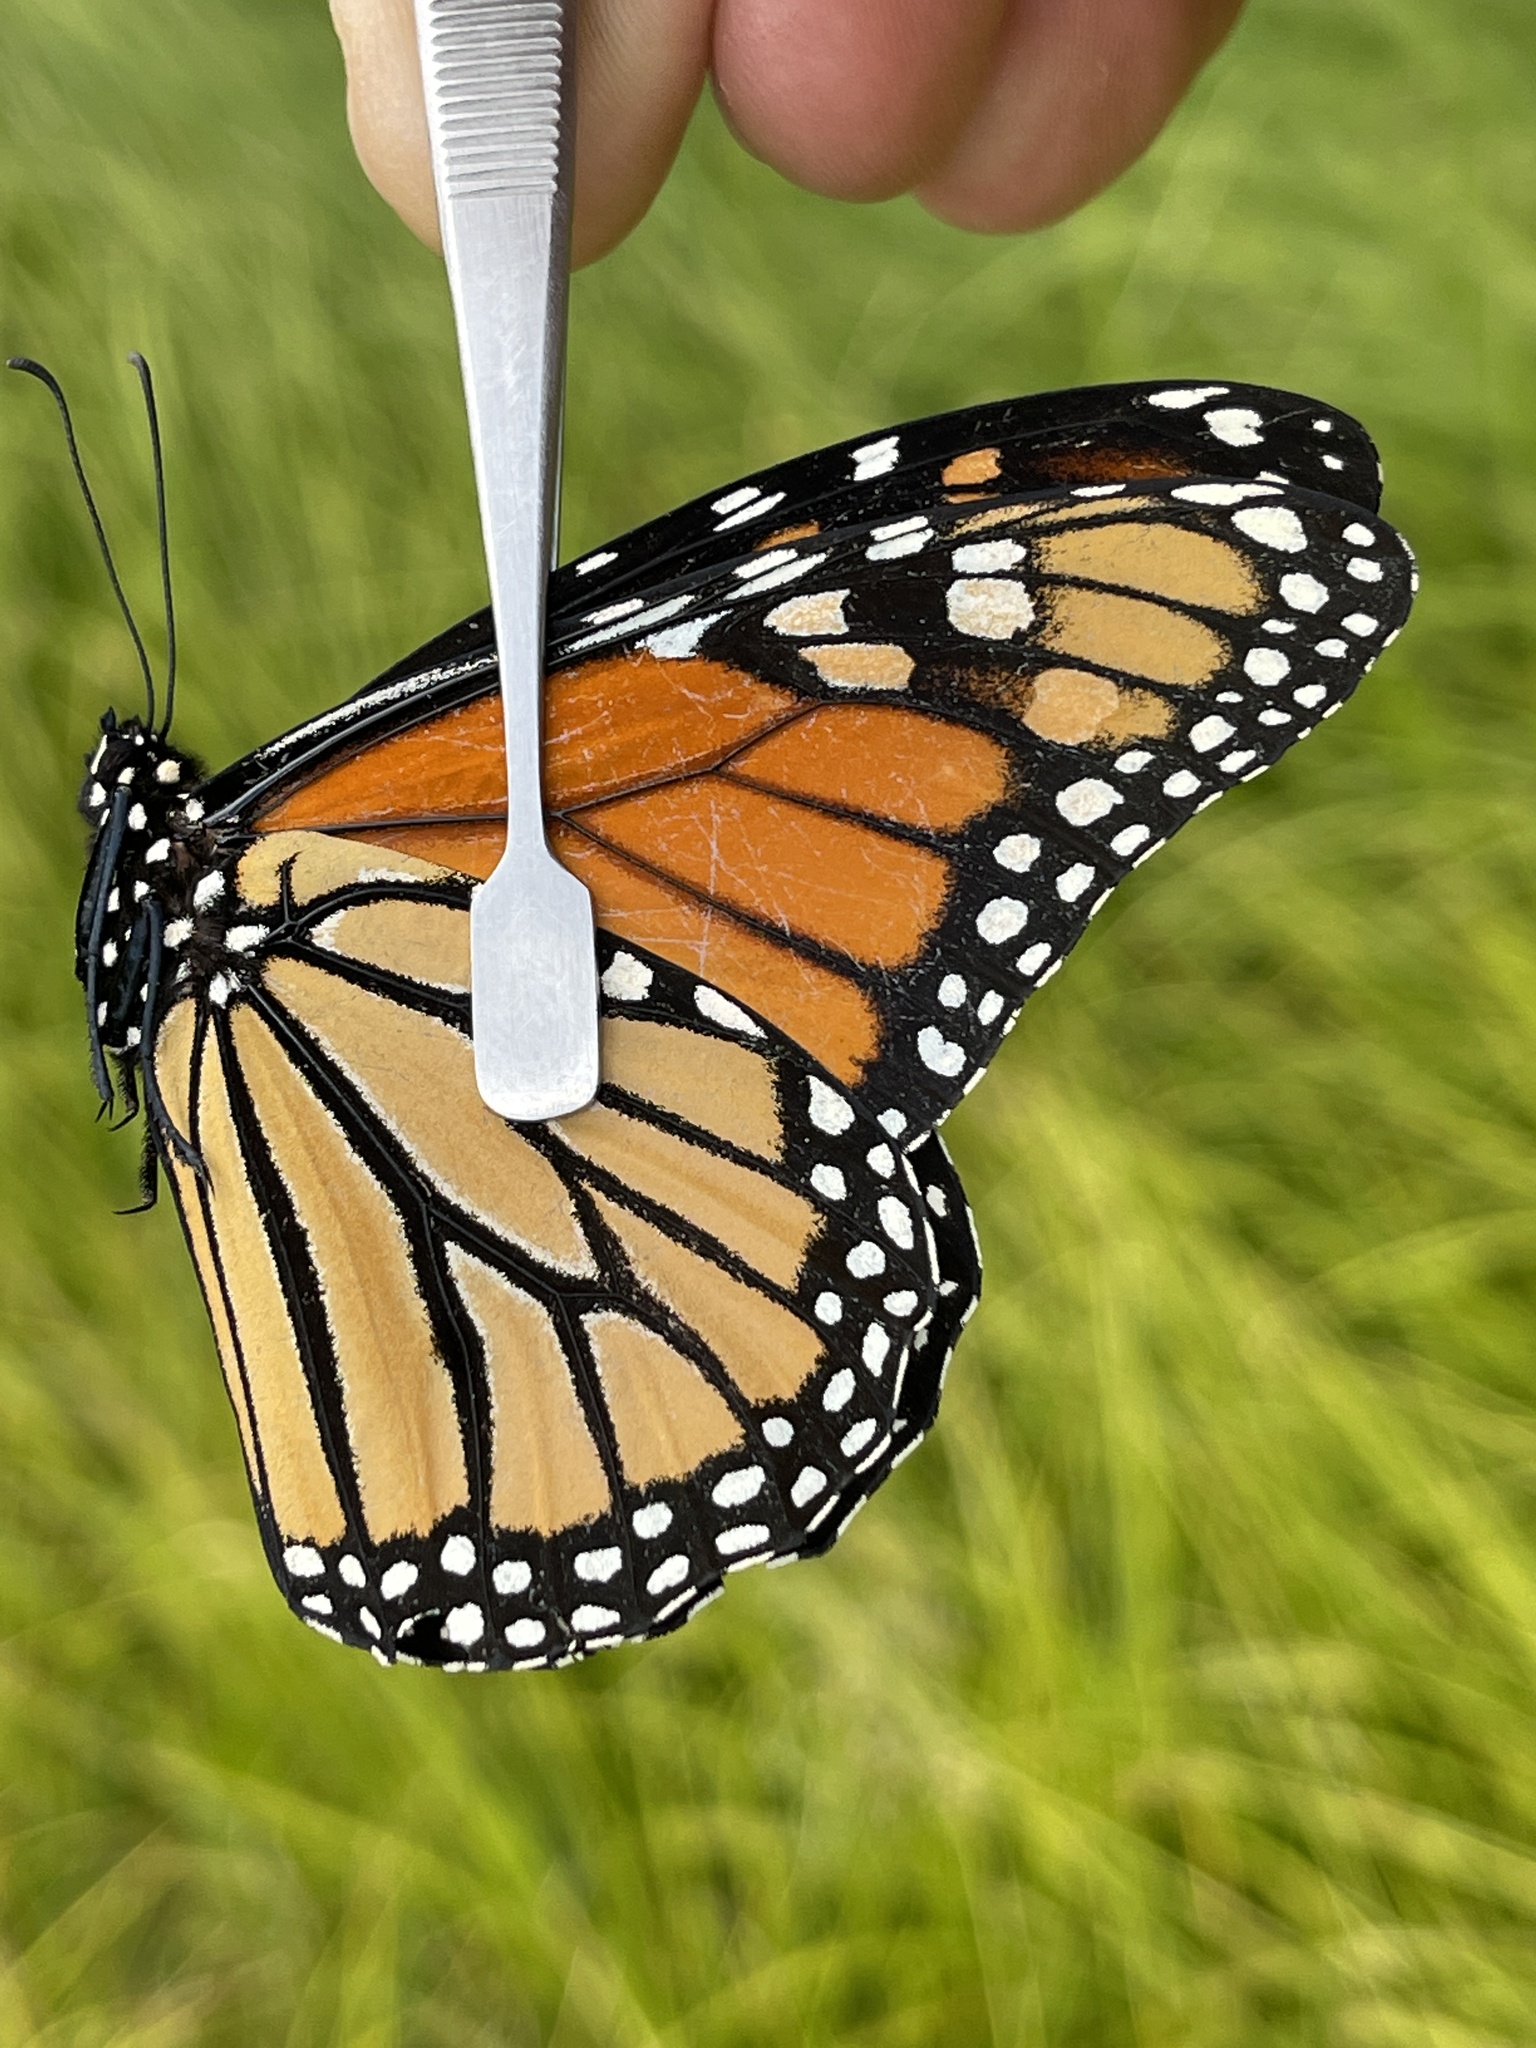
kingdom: Animalia
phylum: Arthropoda
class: Insecta
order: Lepidoptera
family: Nymphalidae
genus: Danaus
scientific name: Danaus plexippus
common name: Monarch
